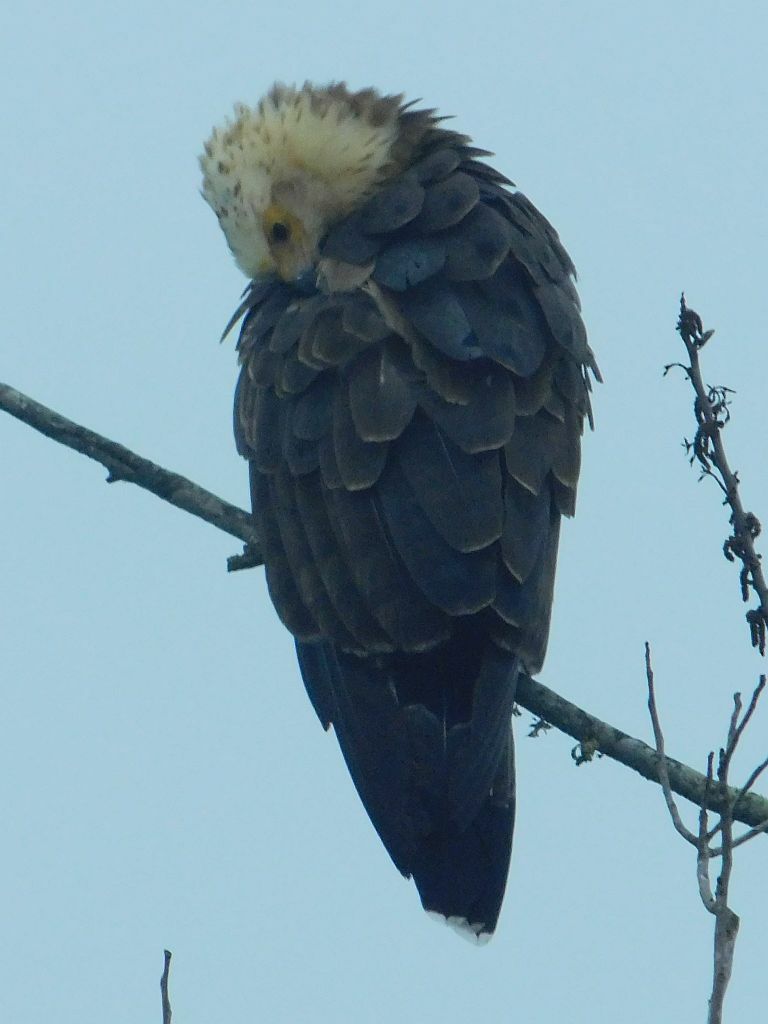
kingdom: Animalia
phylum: Chordata
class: Aves
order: Accipitriformes
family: Accipitridae
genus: Haliaeetus
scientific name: Haliaeetus vocifer
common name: African fish eagle
